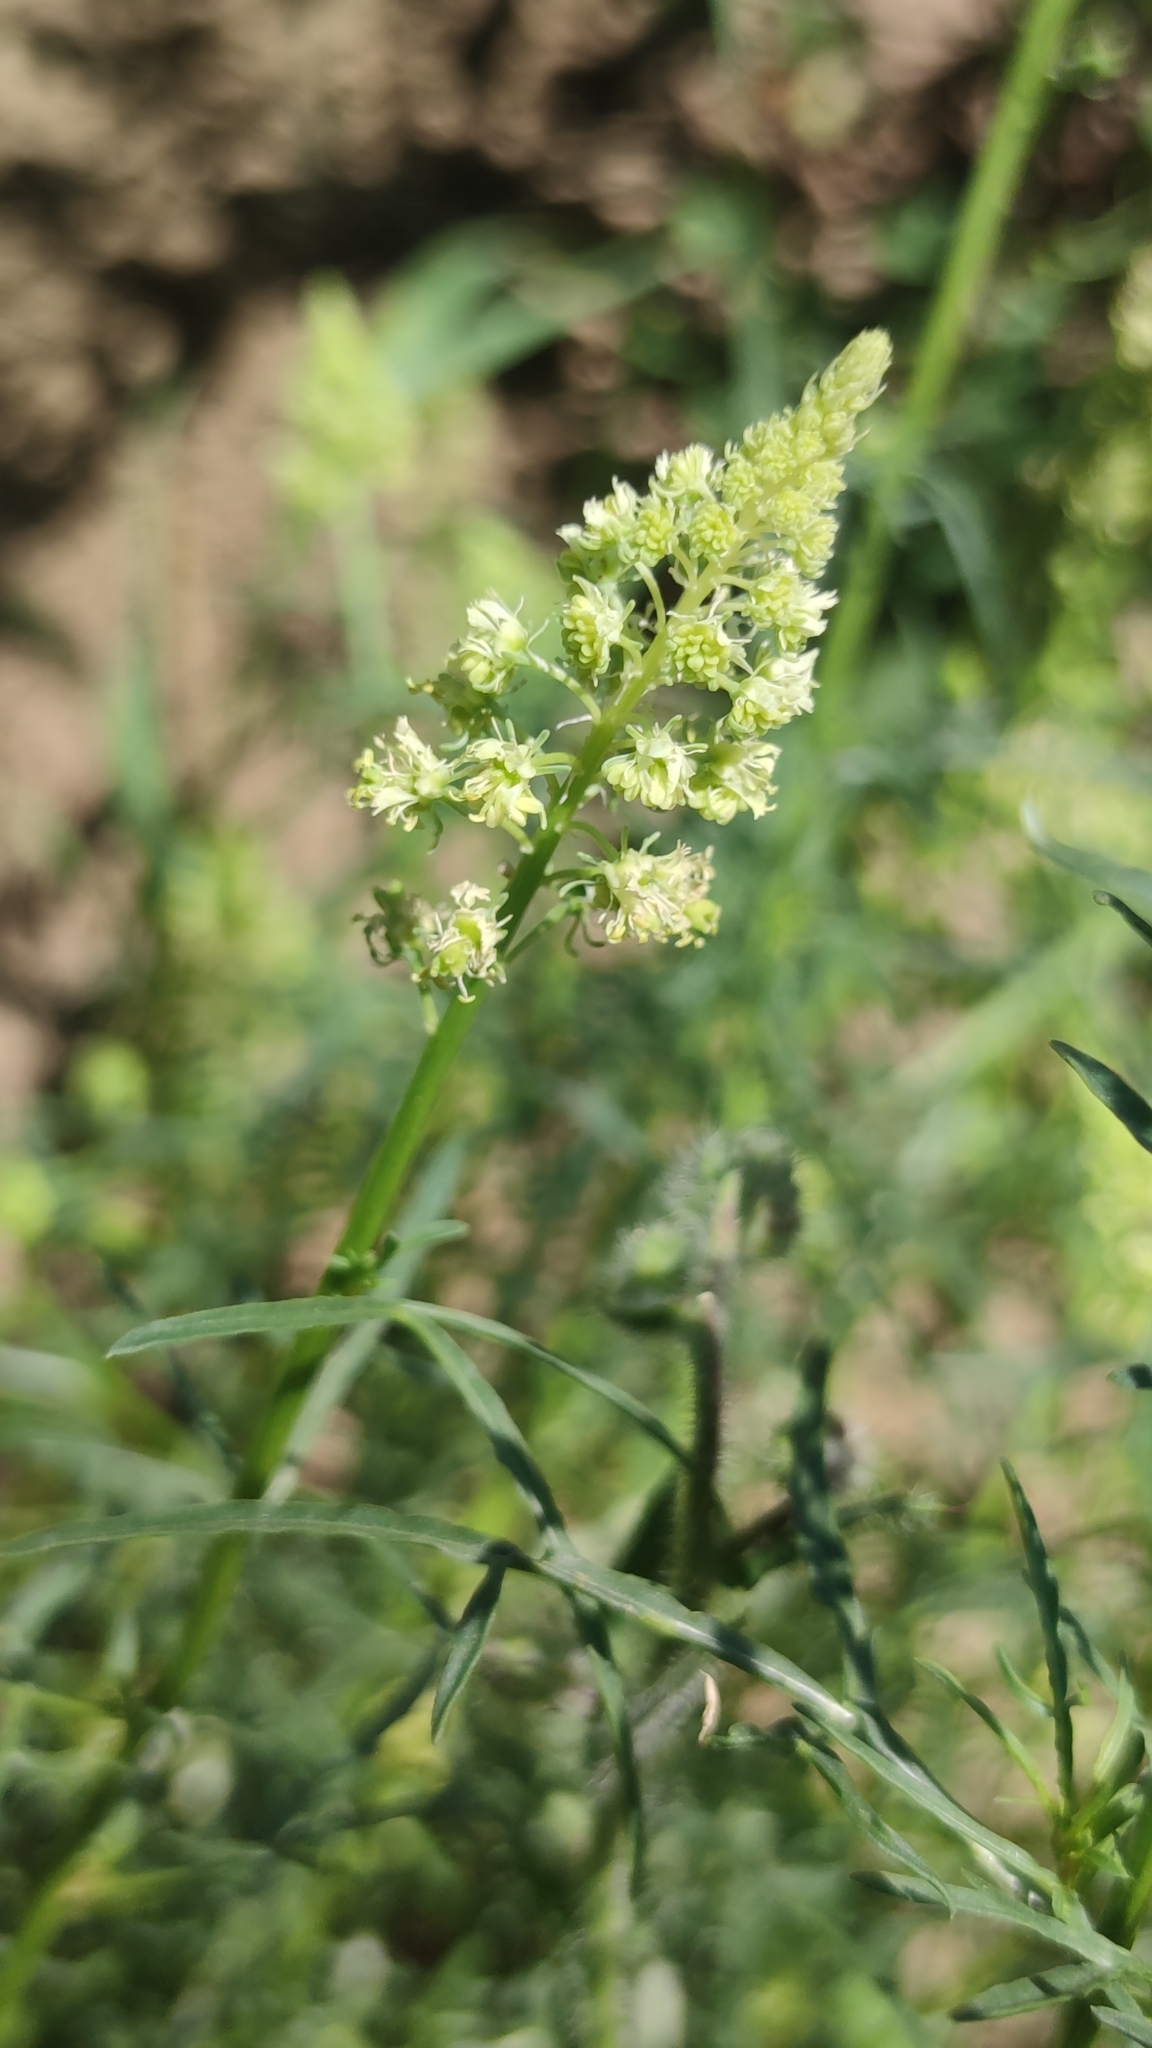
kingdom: Plantae
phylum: Tracheophyta
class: Magnoliopsida
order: Brassicales
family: Resedaceae
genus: Reseda
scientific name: Reseda lutea
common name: Wild mignonette
